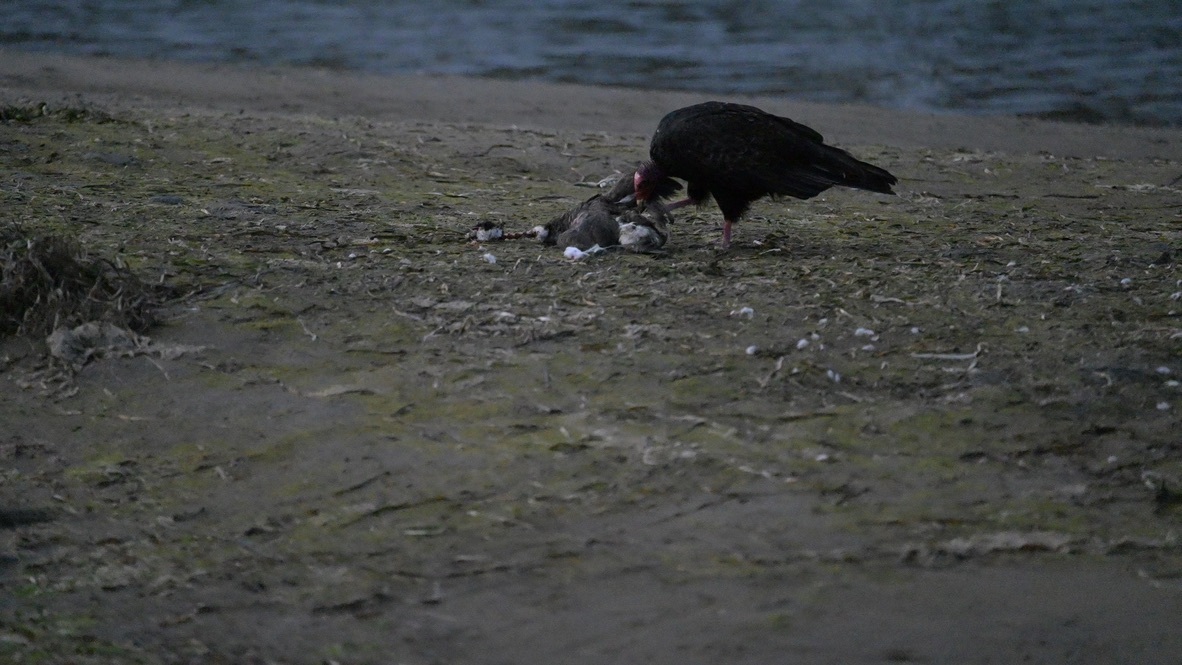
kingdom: Animalia
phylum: Chordata
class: Aves
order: Accipitriformes
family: Cathartidae
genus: Cathartes
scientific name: Cathartes aura
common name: Turkey vulture
